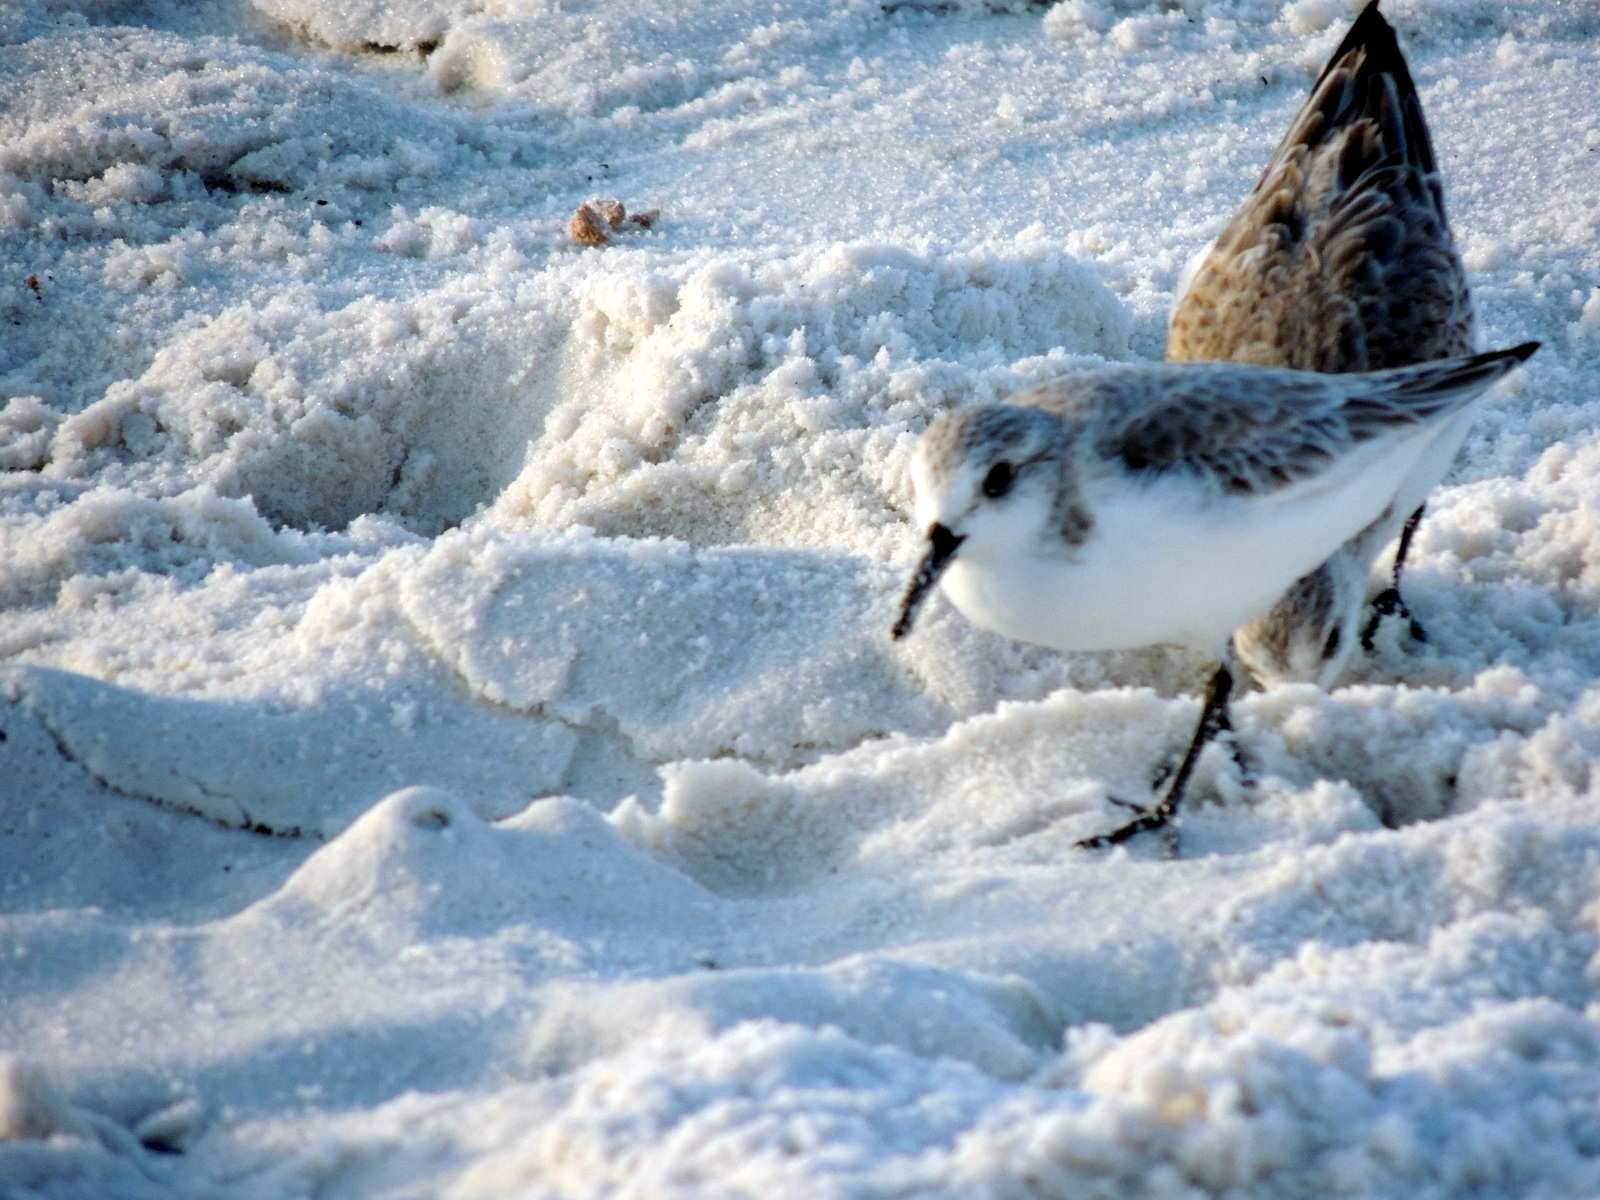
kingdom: Animalia
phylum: Chordata
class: Aves
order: Charadriiformes
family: Scolopacidae
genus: Calidris
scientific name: Calidris alba
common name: Sanderling
